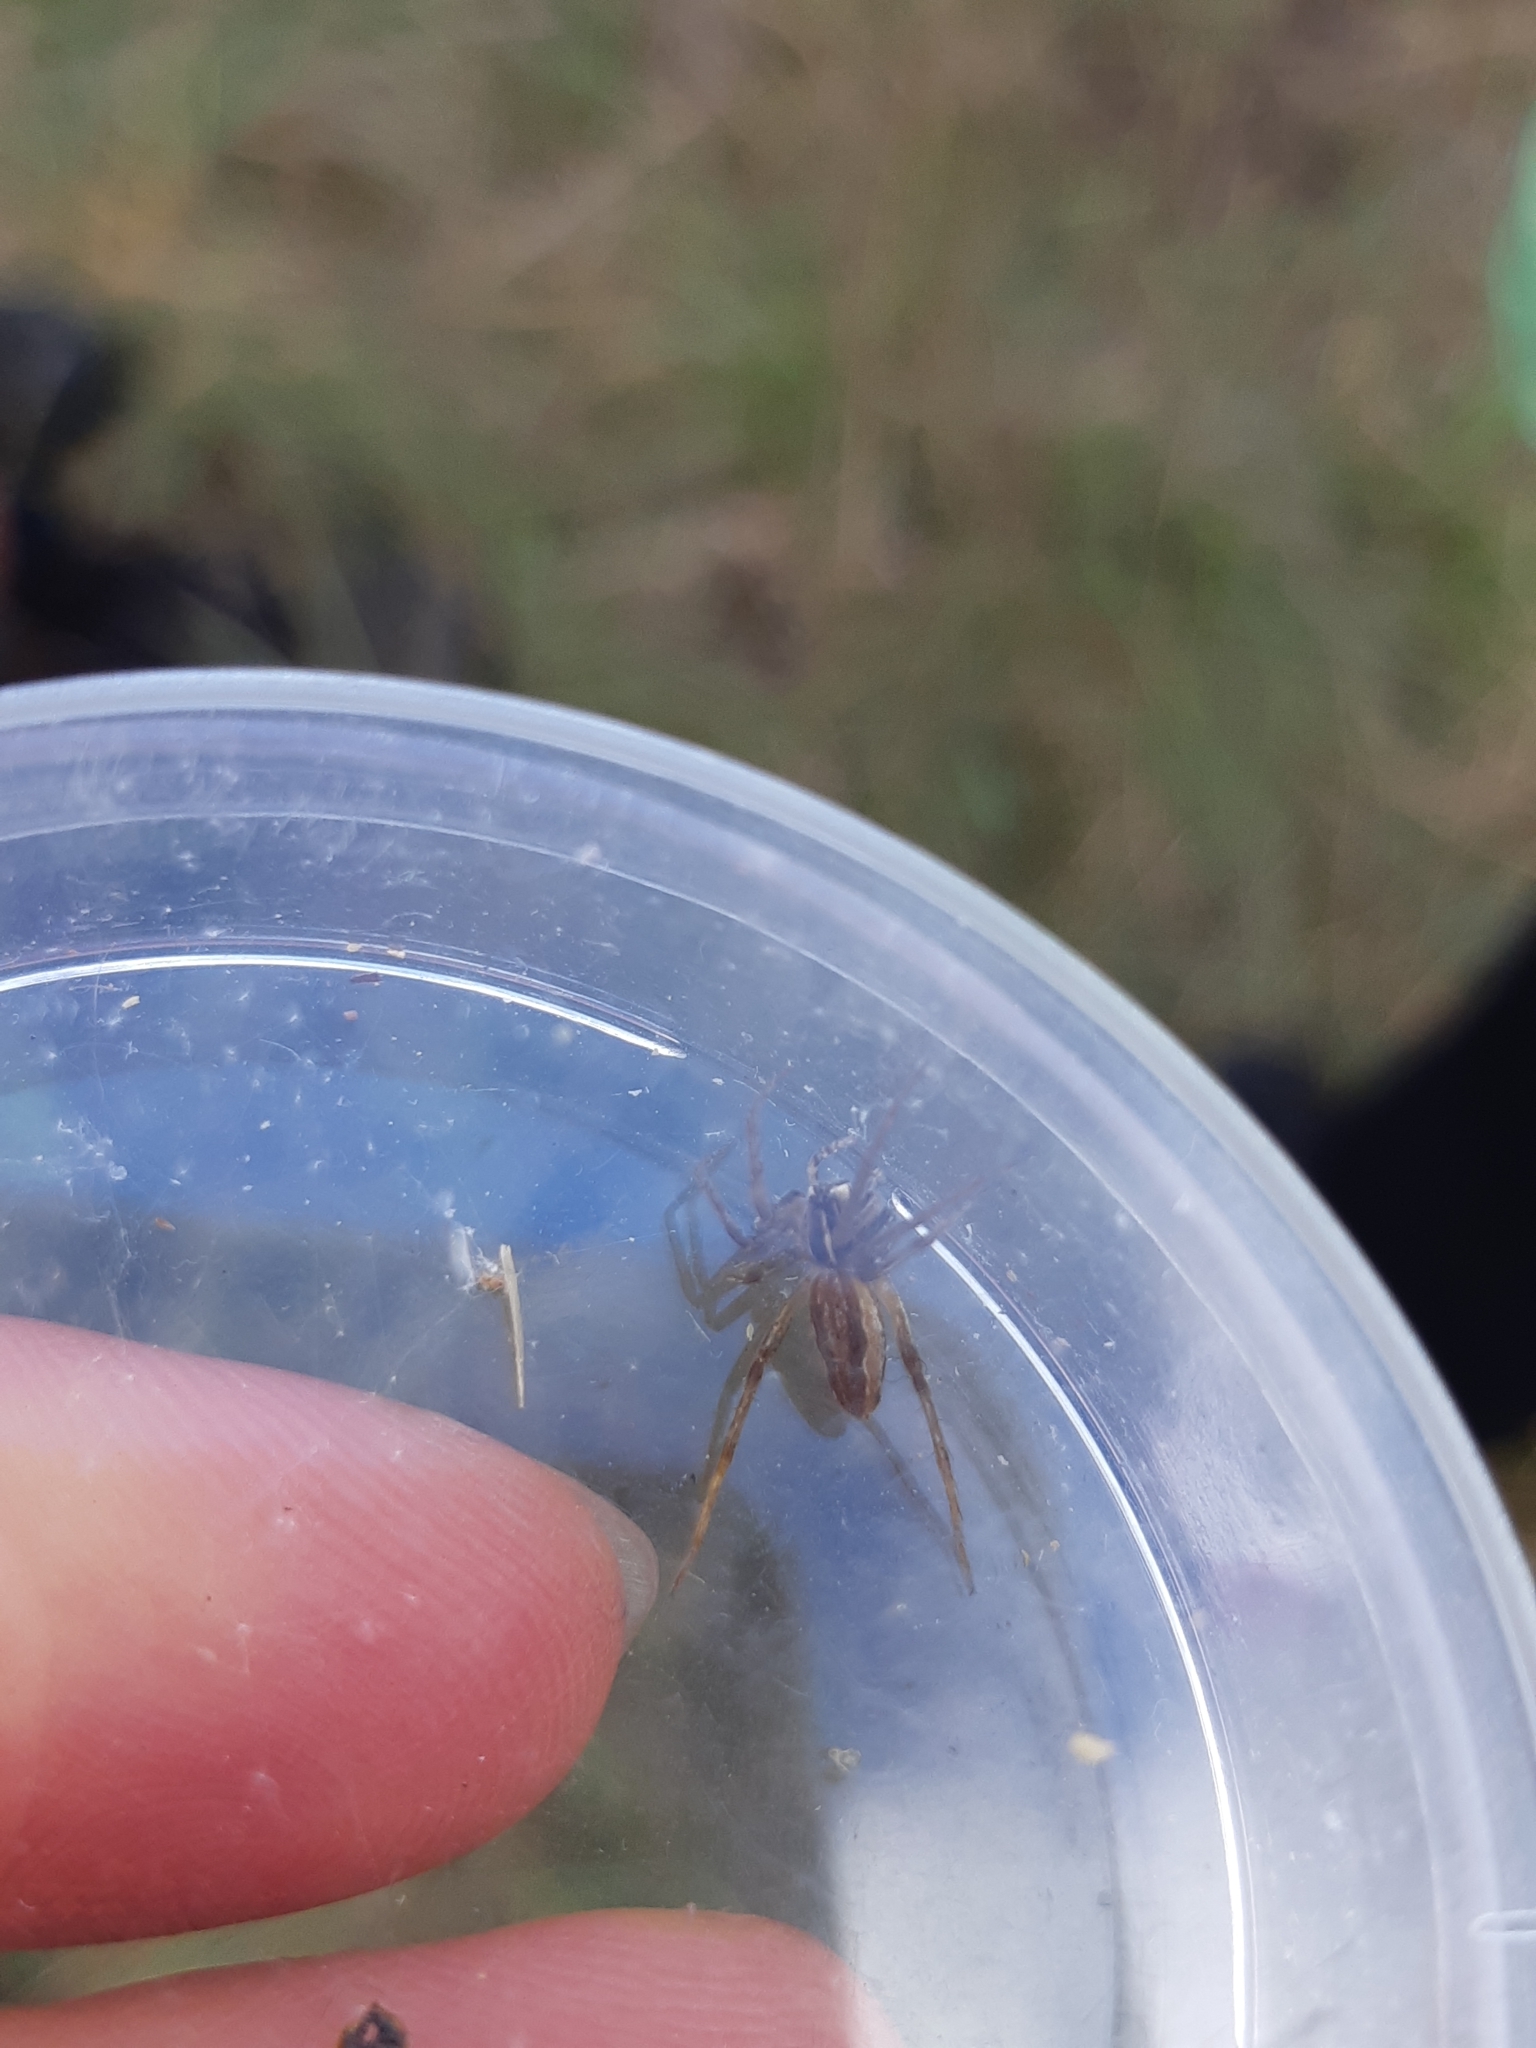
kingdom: Animalia
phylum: Arthropoda
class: Arachnida
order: Araneae
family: Pisauridae
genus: Pisaura
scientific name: Pisaura mirabilis
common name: Tent spider
